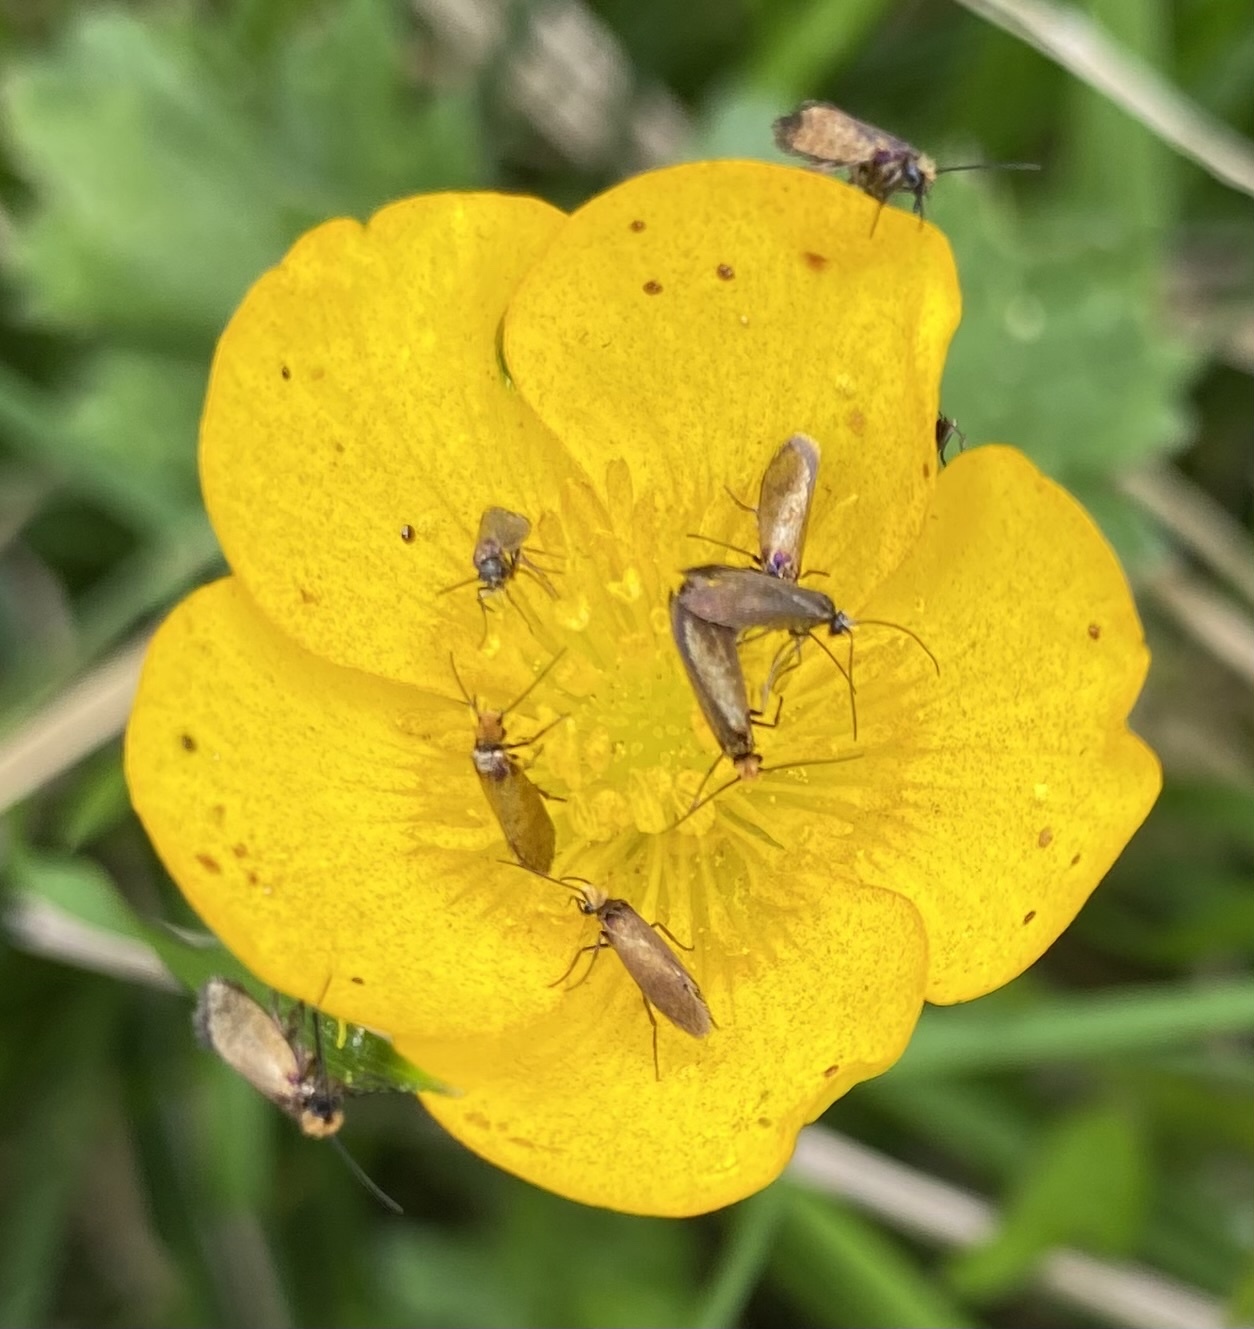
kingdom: Animalia
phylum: Arthropoda
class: Insecta
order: Lepidoptera
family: Micropterigidae
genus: Micropterix
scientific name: Micropterix calthella
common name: Plain gold
